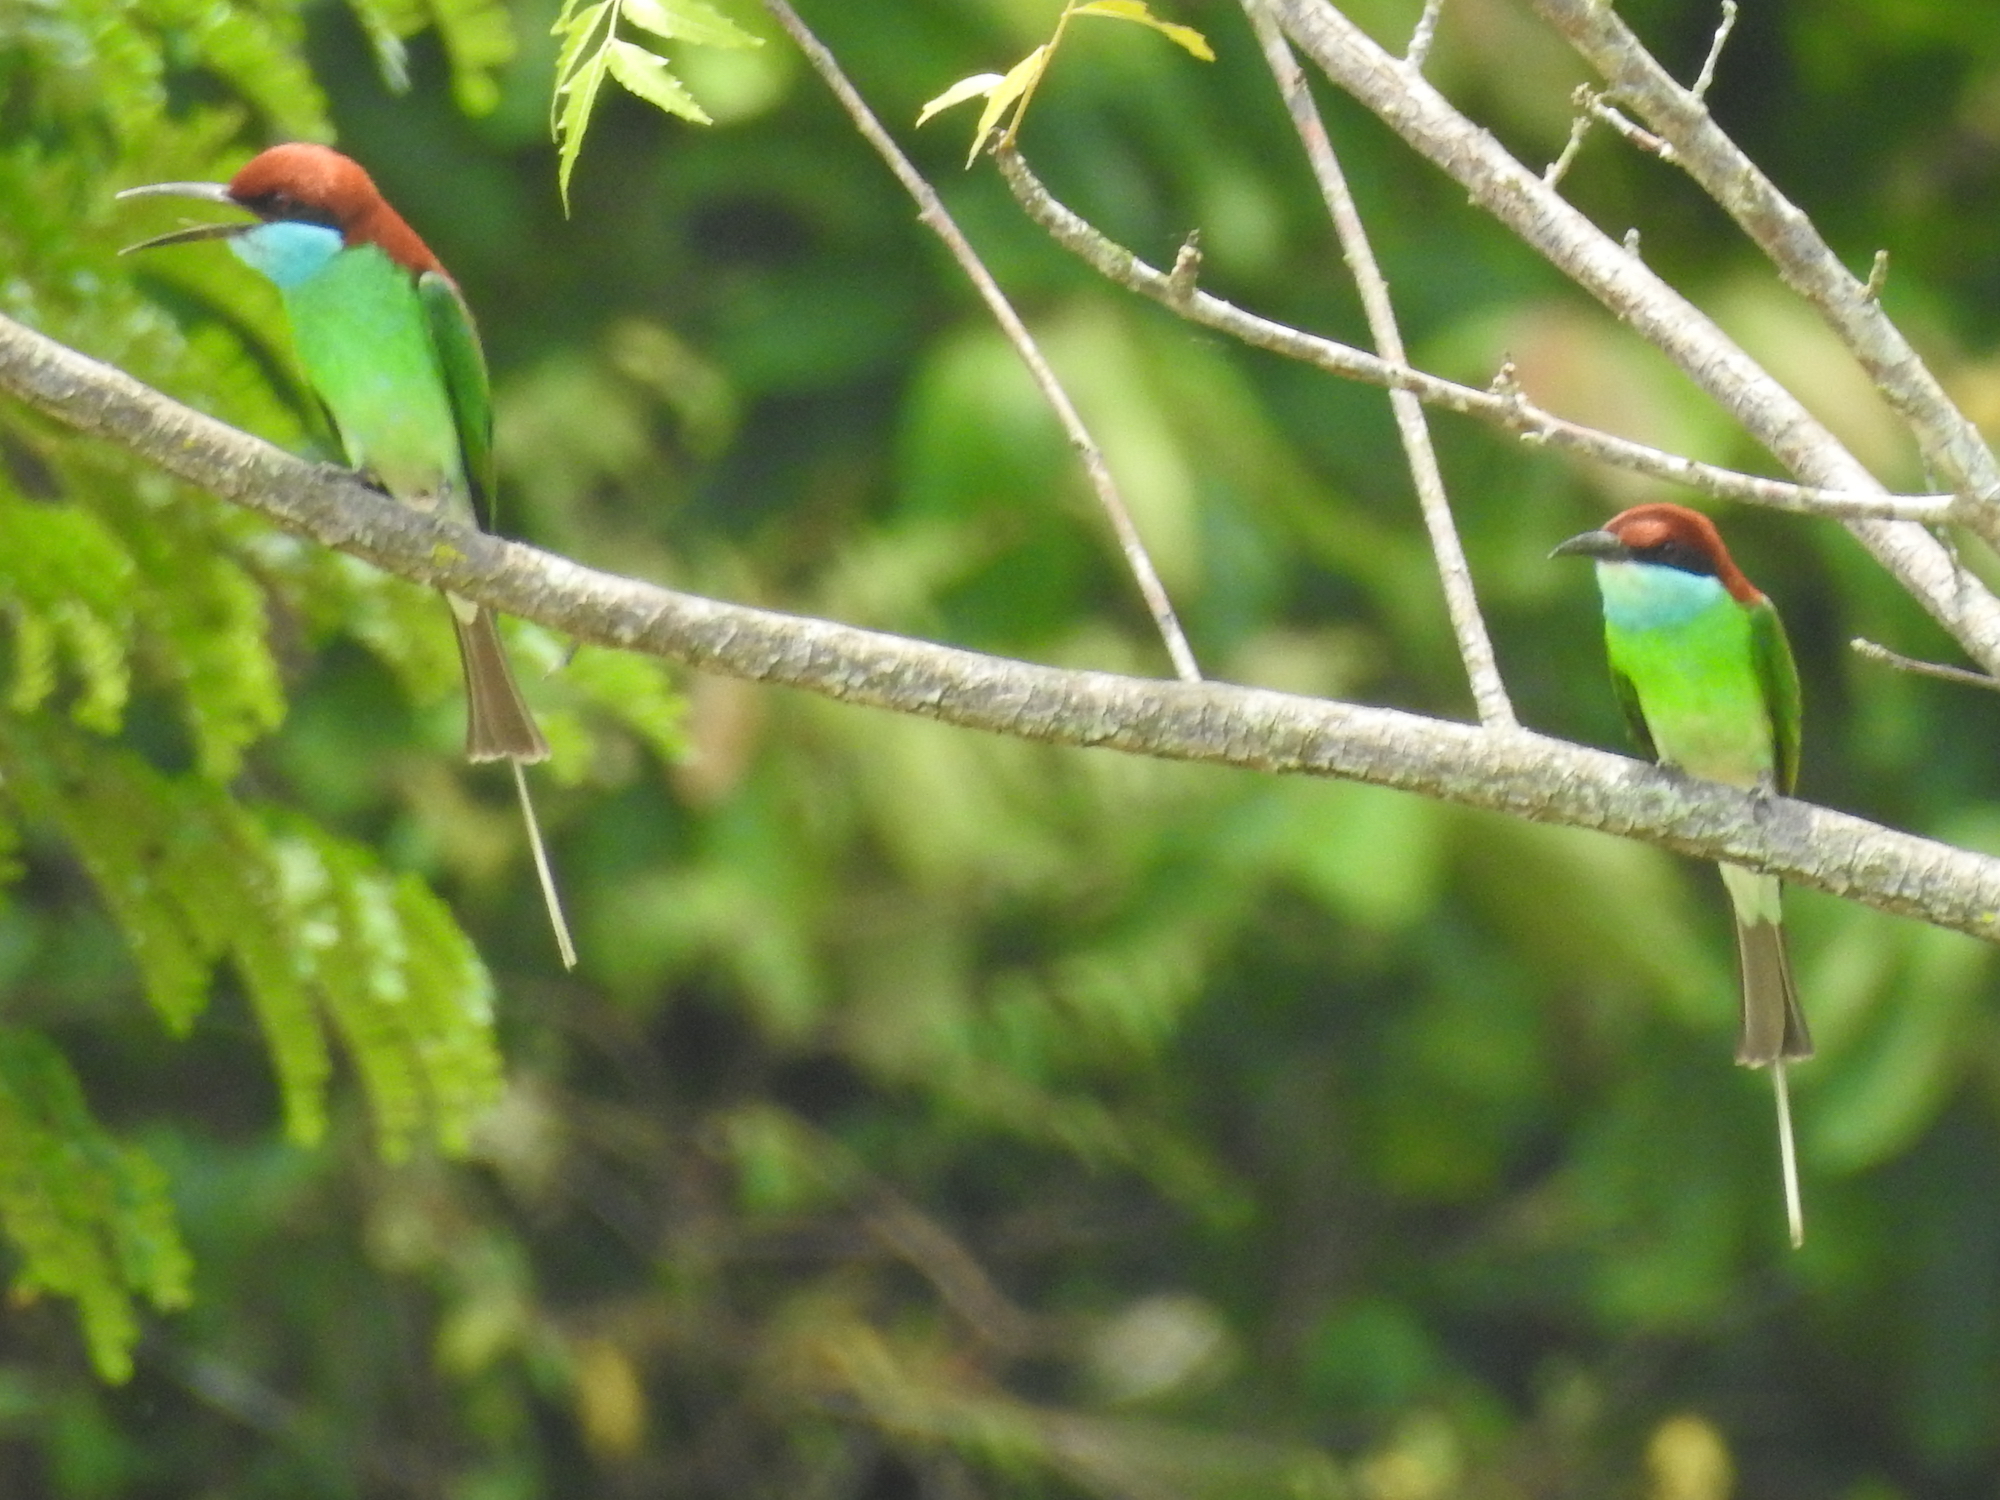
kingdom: Animalia
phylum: Chordata
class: Aves
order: Coraciiformes
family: Meropidae
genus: Merops
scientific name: Merops viridis
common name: Blue-throated bee-eater
